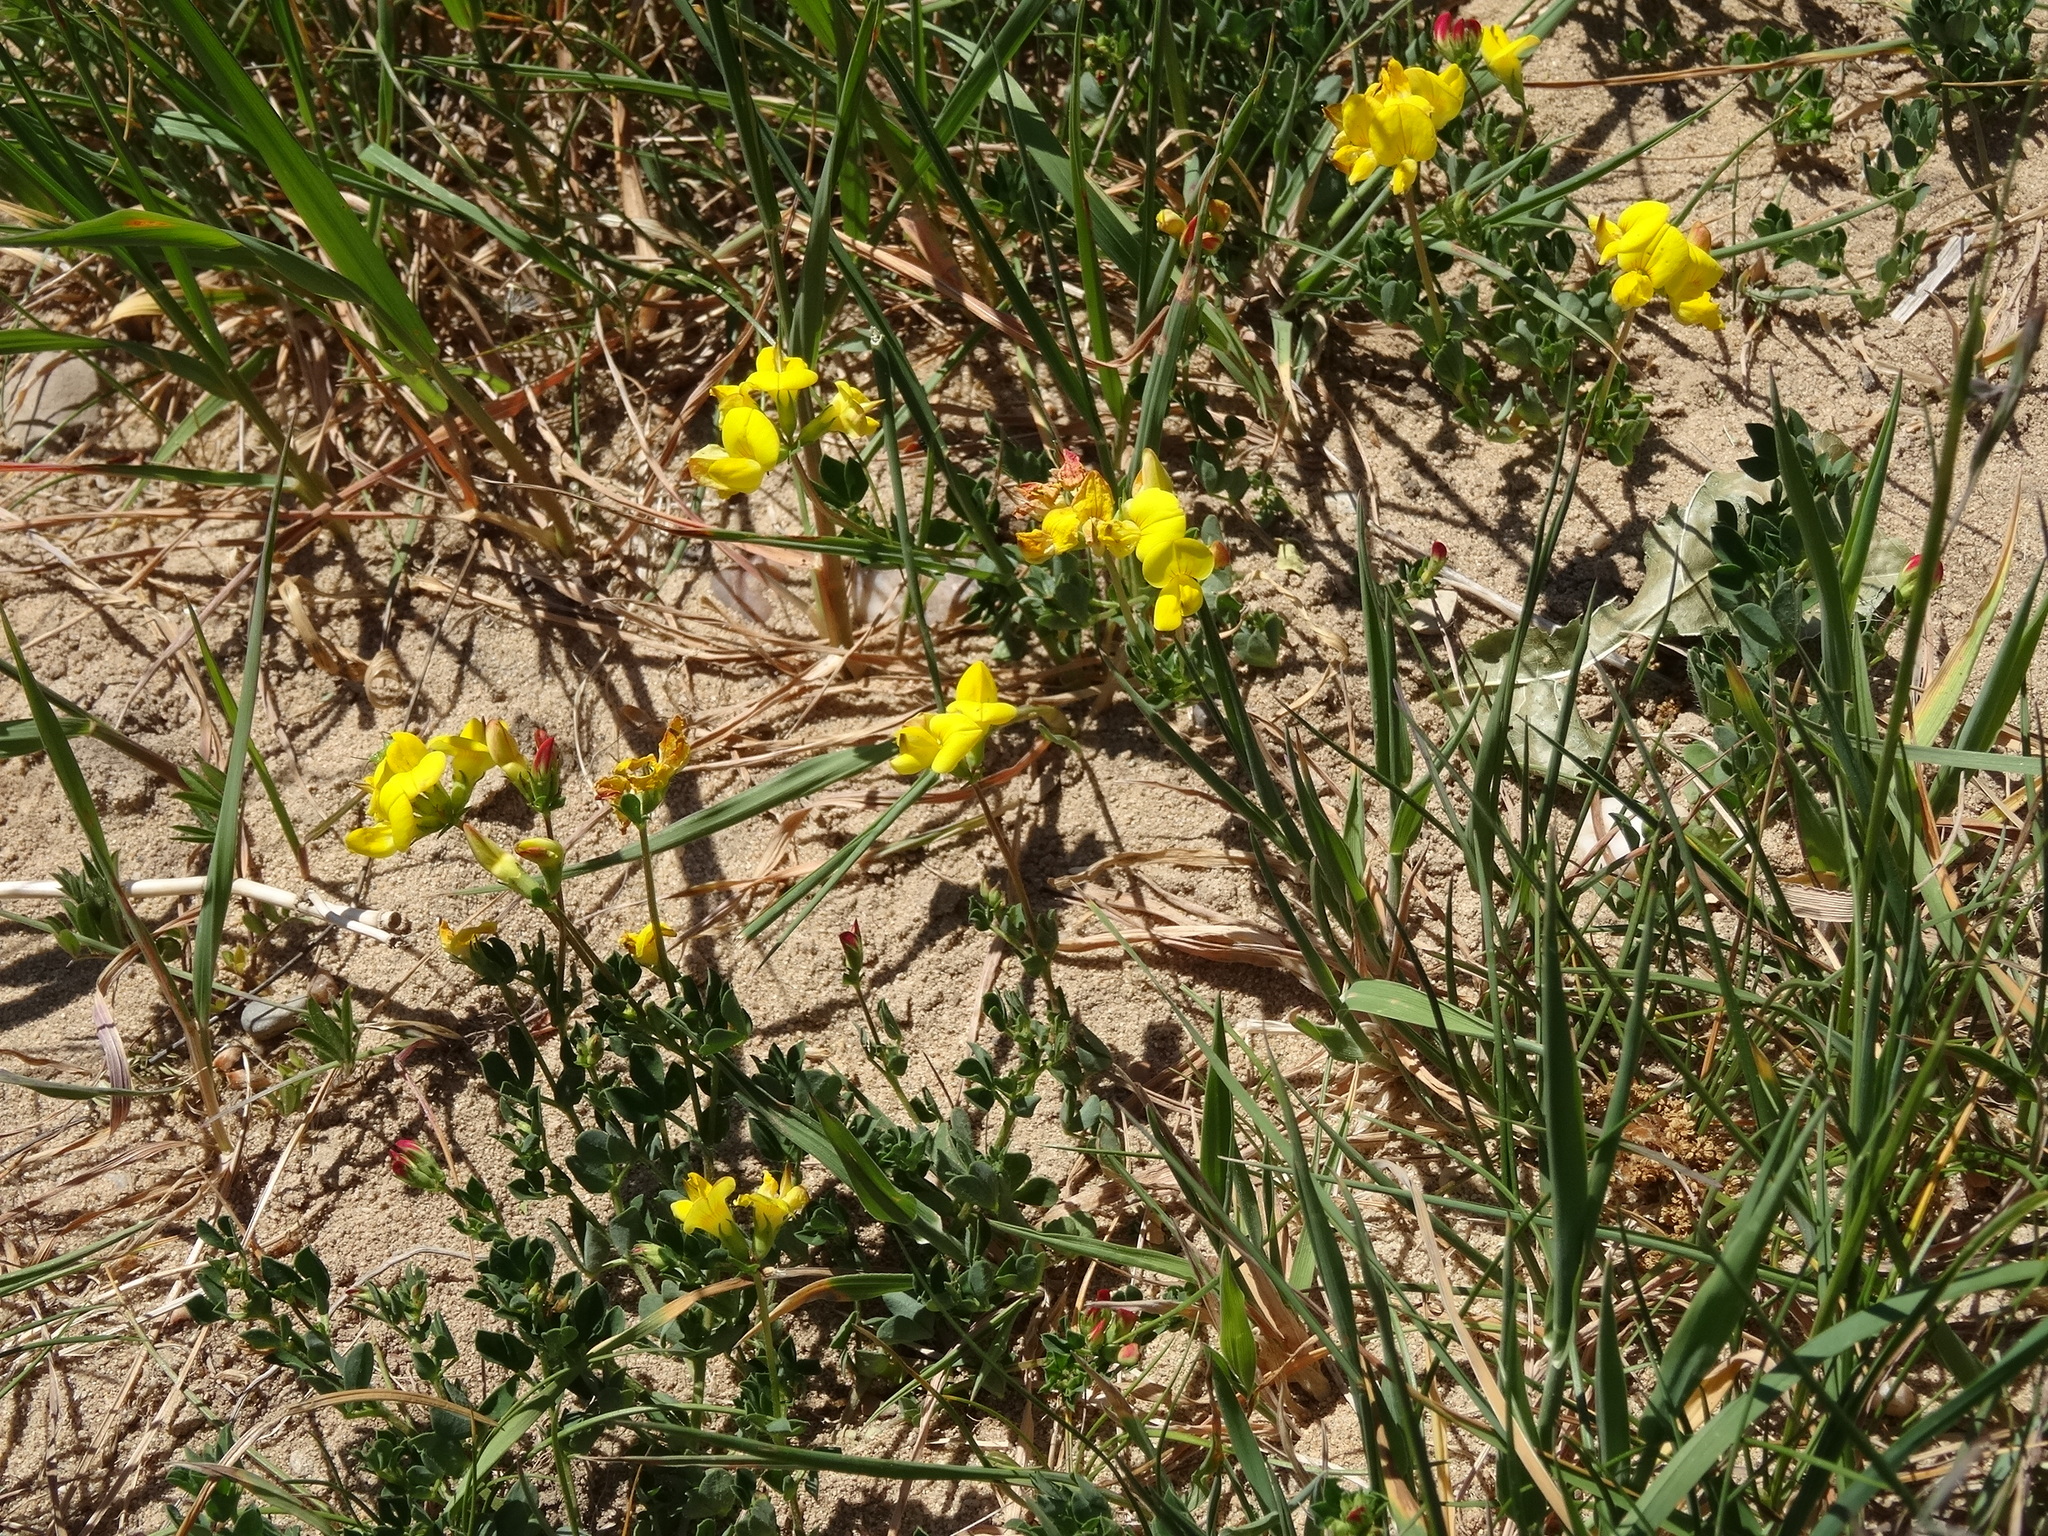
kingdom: Plantae
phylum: Tracheophyta
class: Magnoliopsida
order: Fabales
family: Fabaceae
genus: Lotus
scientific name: Lotus corniculatus
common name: Common bird's-foot-trefoil
